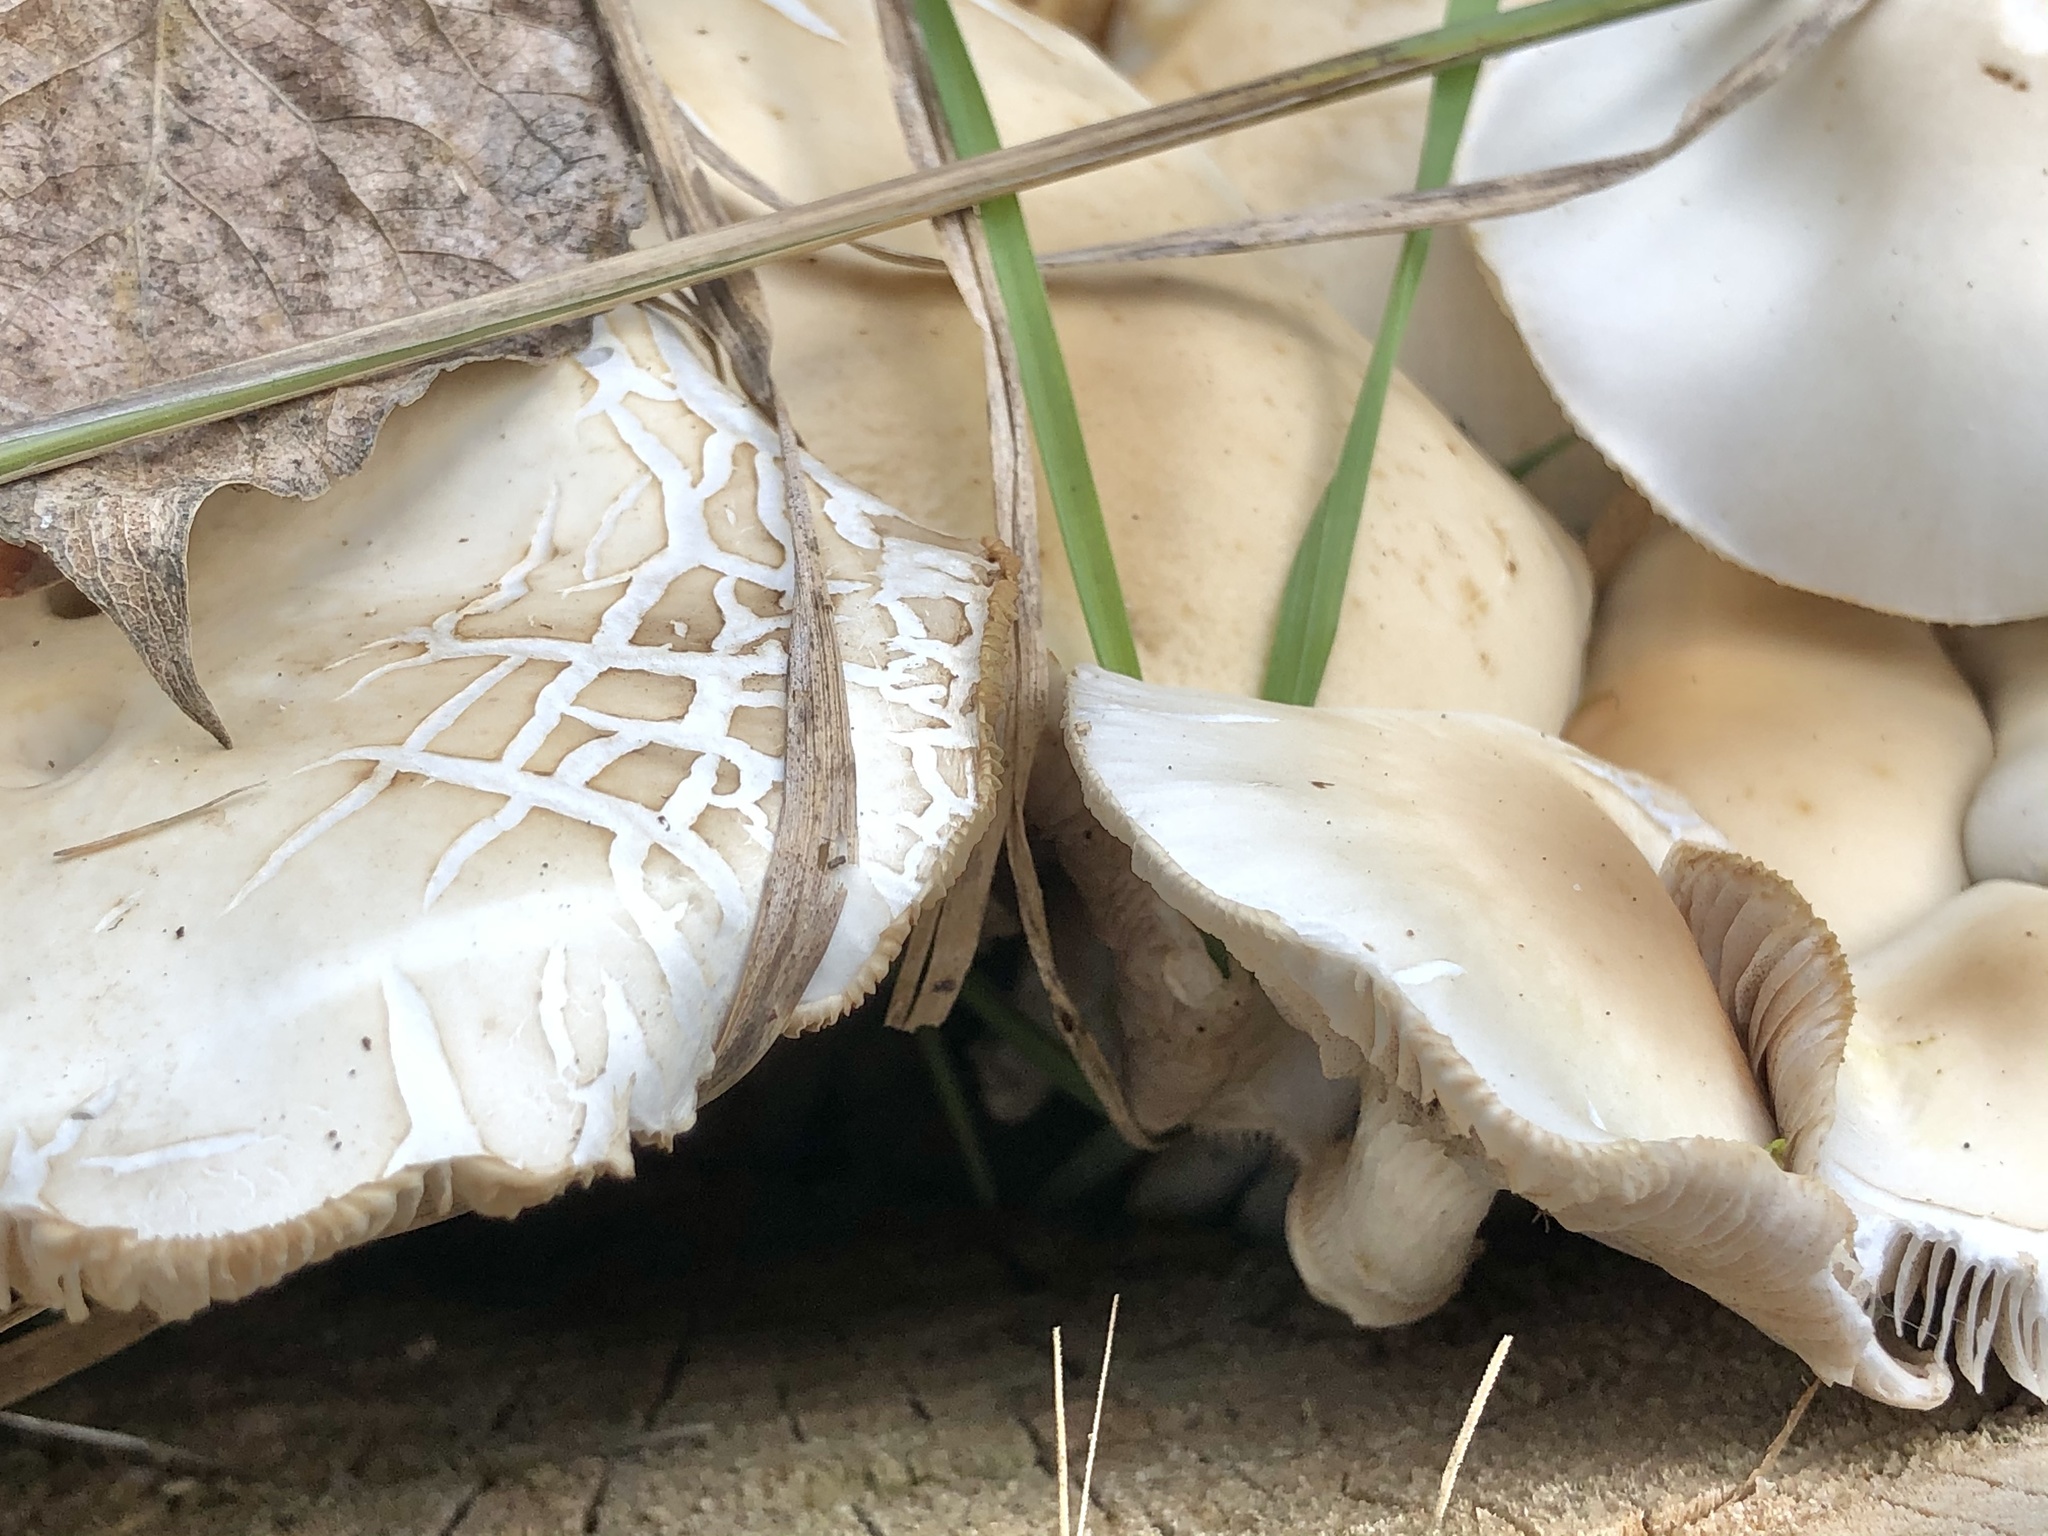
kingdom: Fungi
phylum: Basidiomycota
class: Agaricomycetes
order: Agaricales
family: Tubariaceae
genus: Cyclocybe
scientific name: Cyclocybe cylindracea
